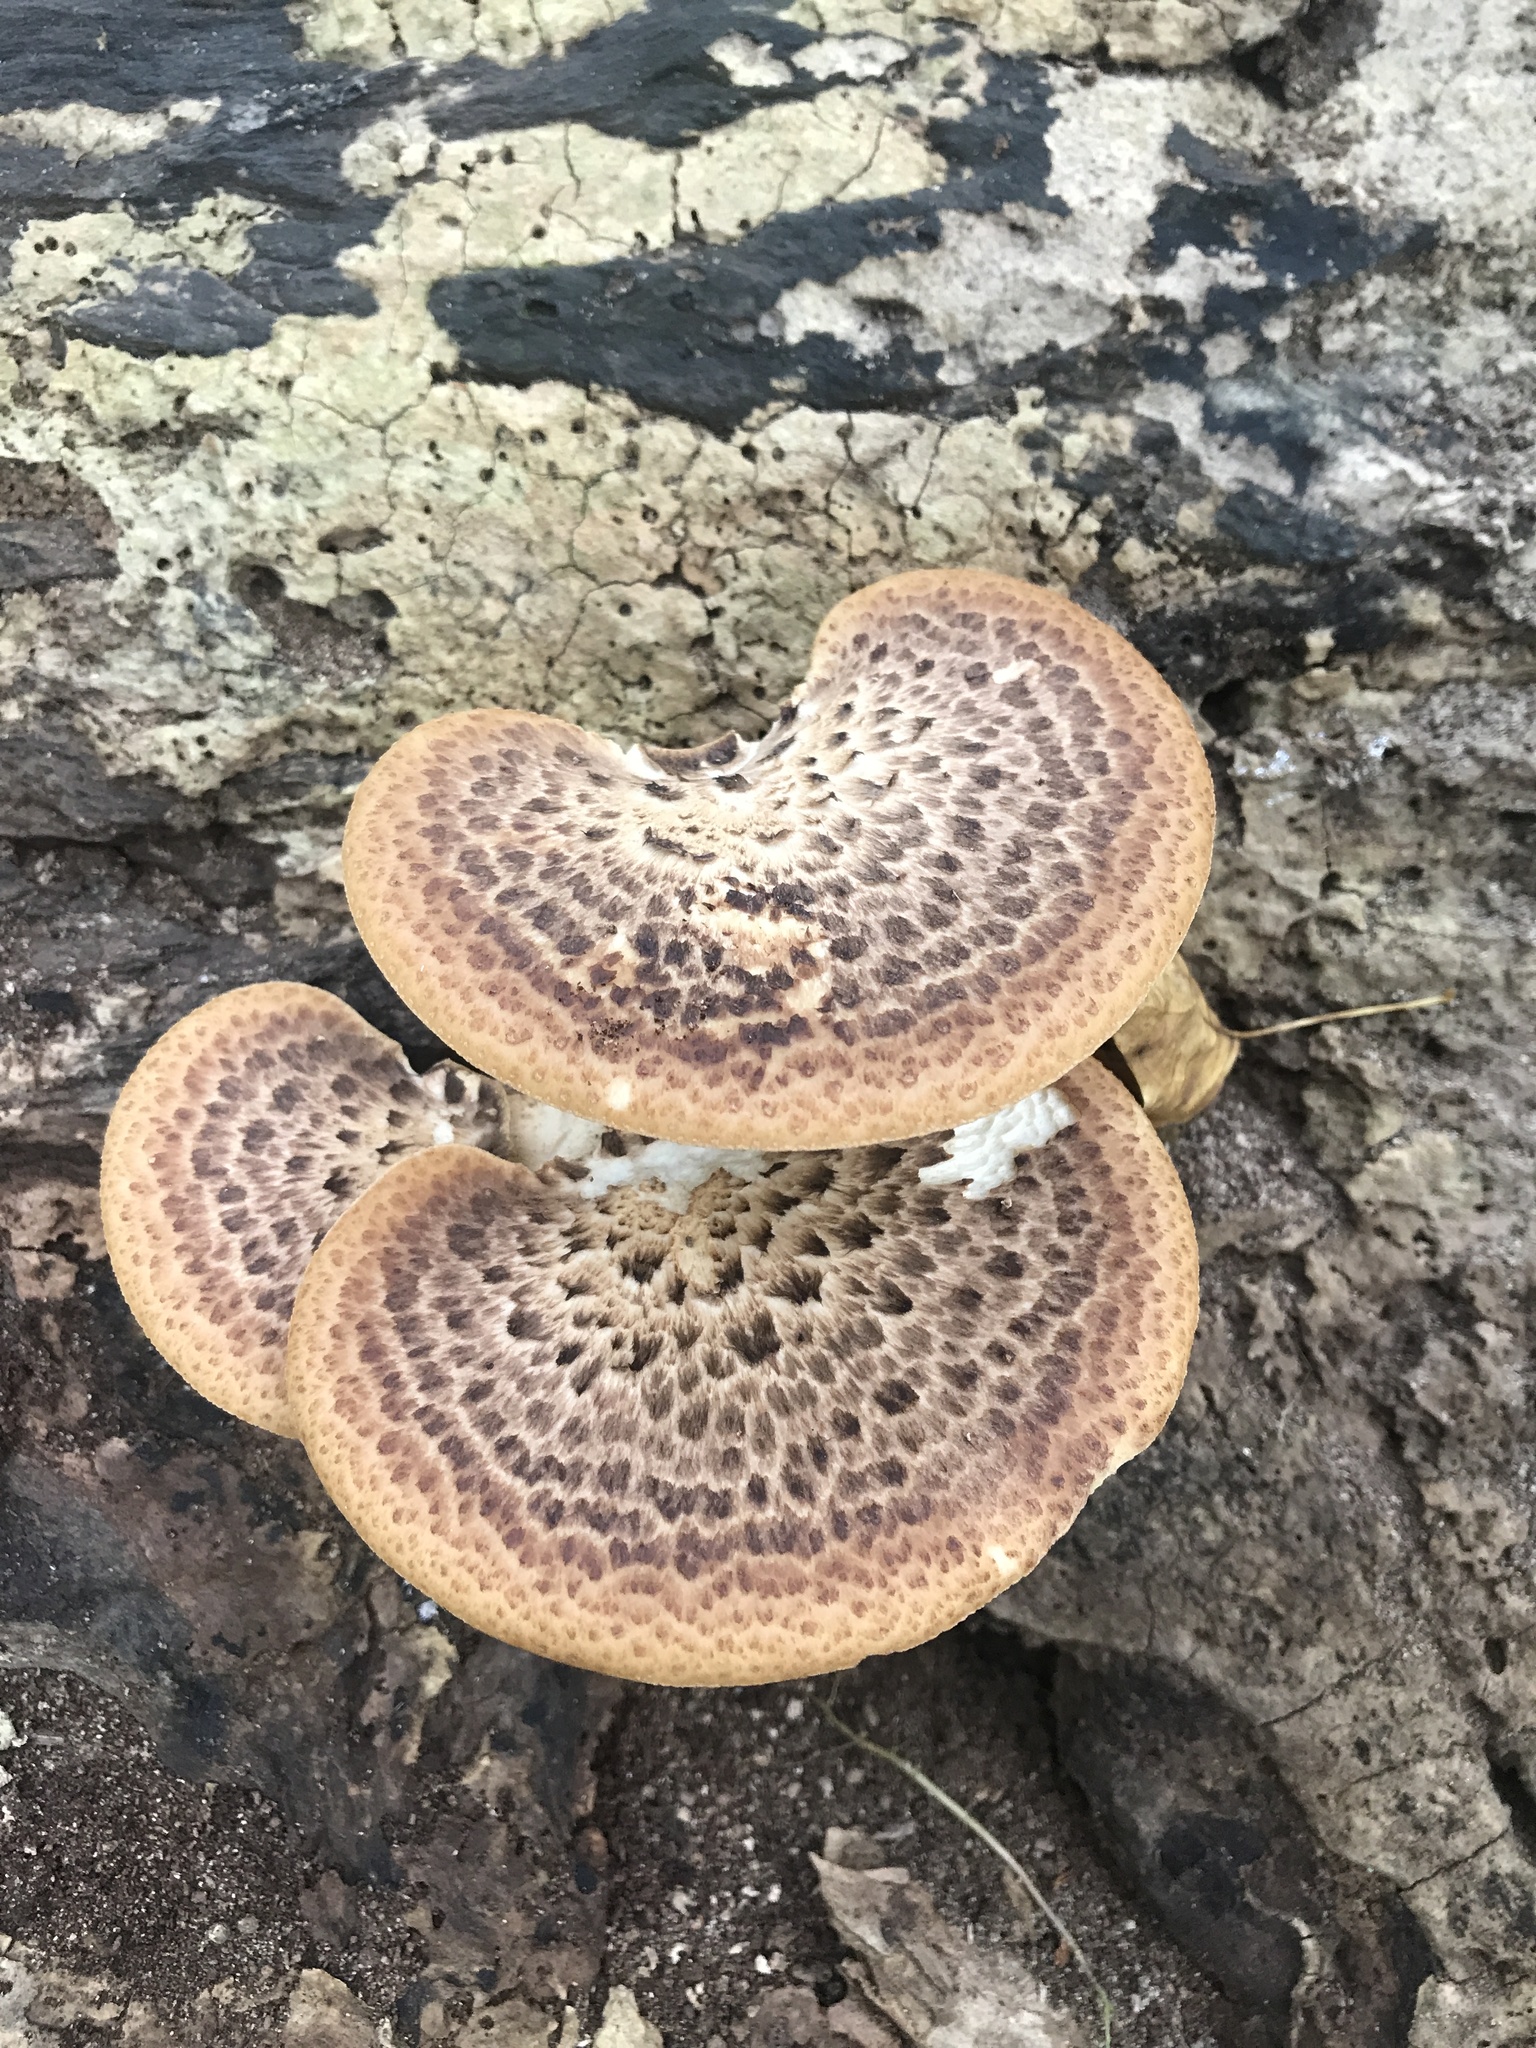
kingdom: Fungi
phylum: Basidiomycota
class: Agaricomycetes
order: Polyporales
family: Polyporaceae
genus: Cerioporus
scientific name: Cerioporus squamosus
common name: Dryad's saddle
